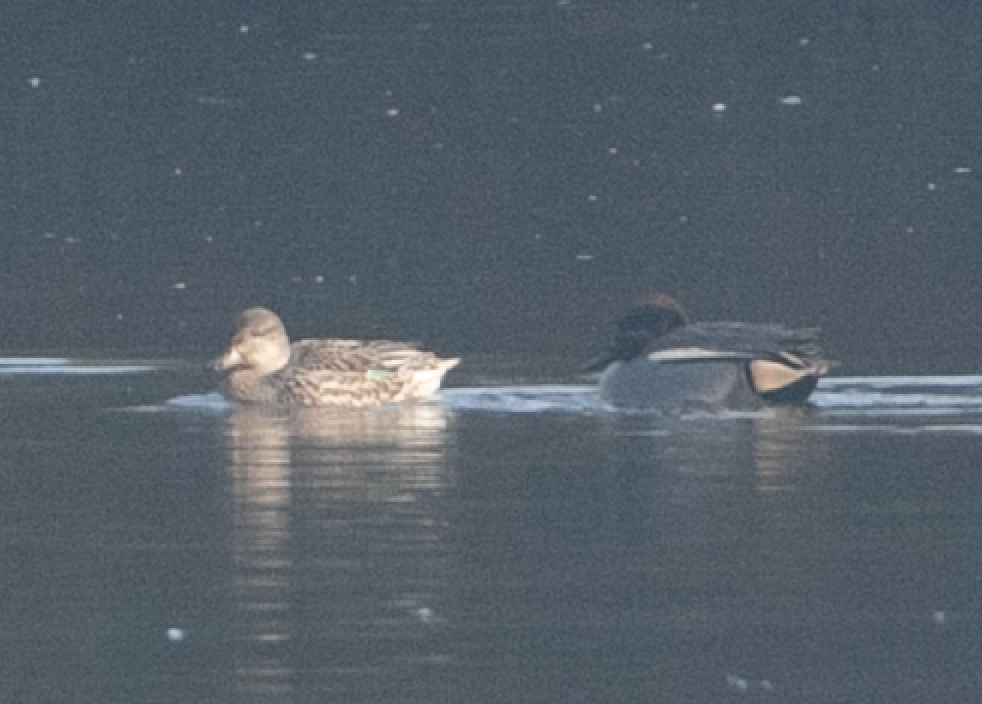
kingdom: Animalia
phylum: Chordata
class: Aves
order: Anseriformes
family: Anatidae
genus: Anas
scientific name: Anas crecca
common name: Eurasian teal
